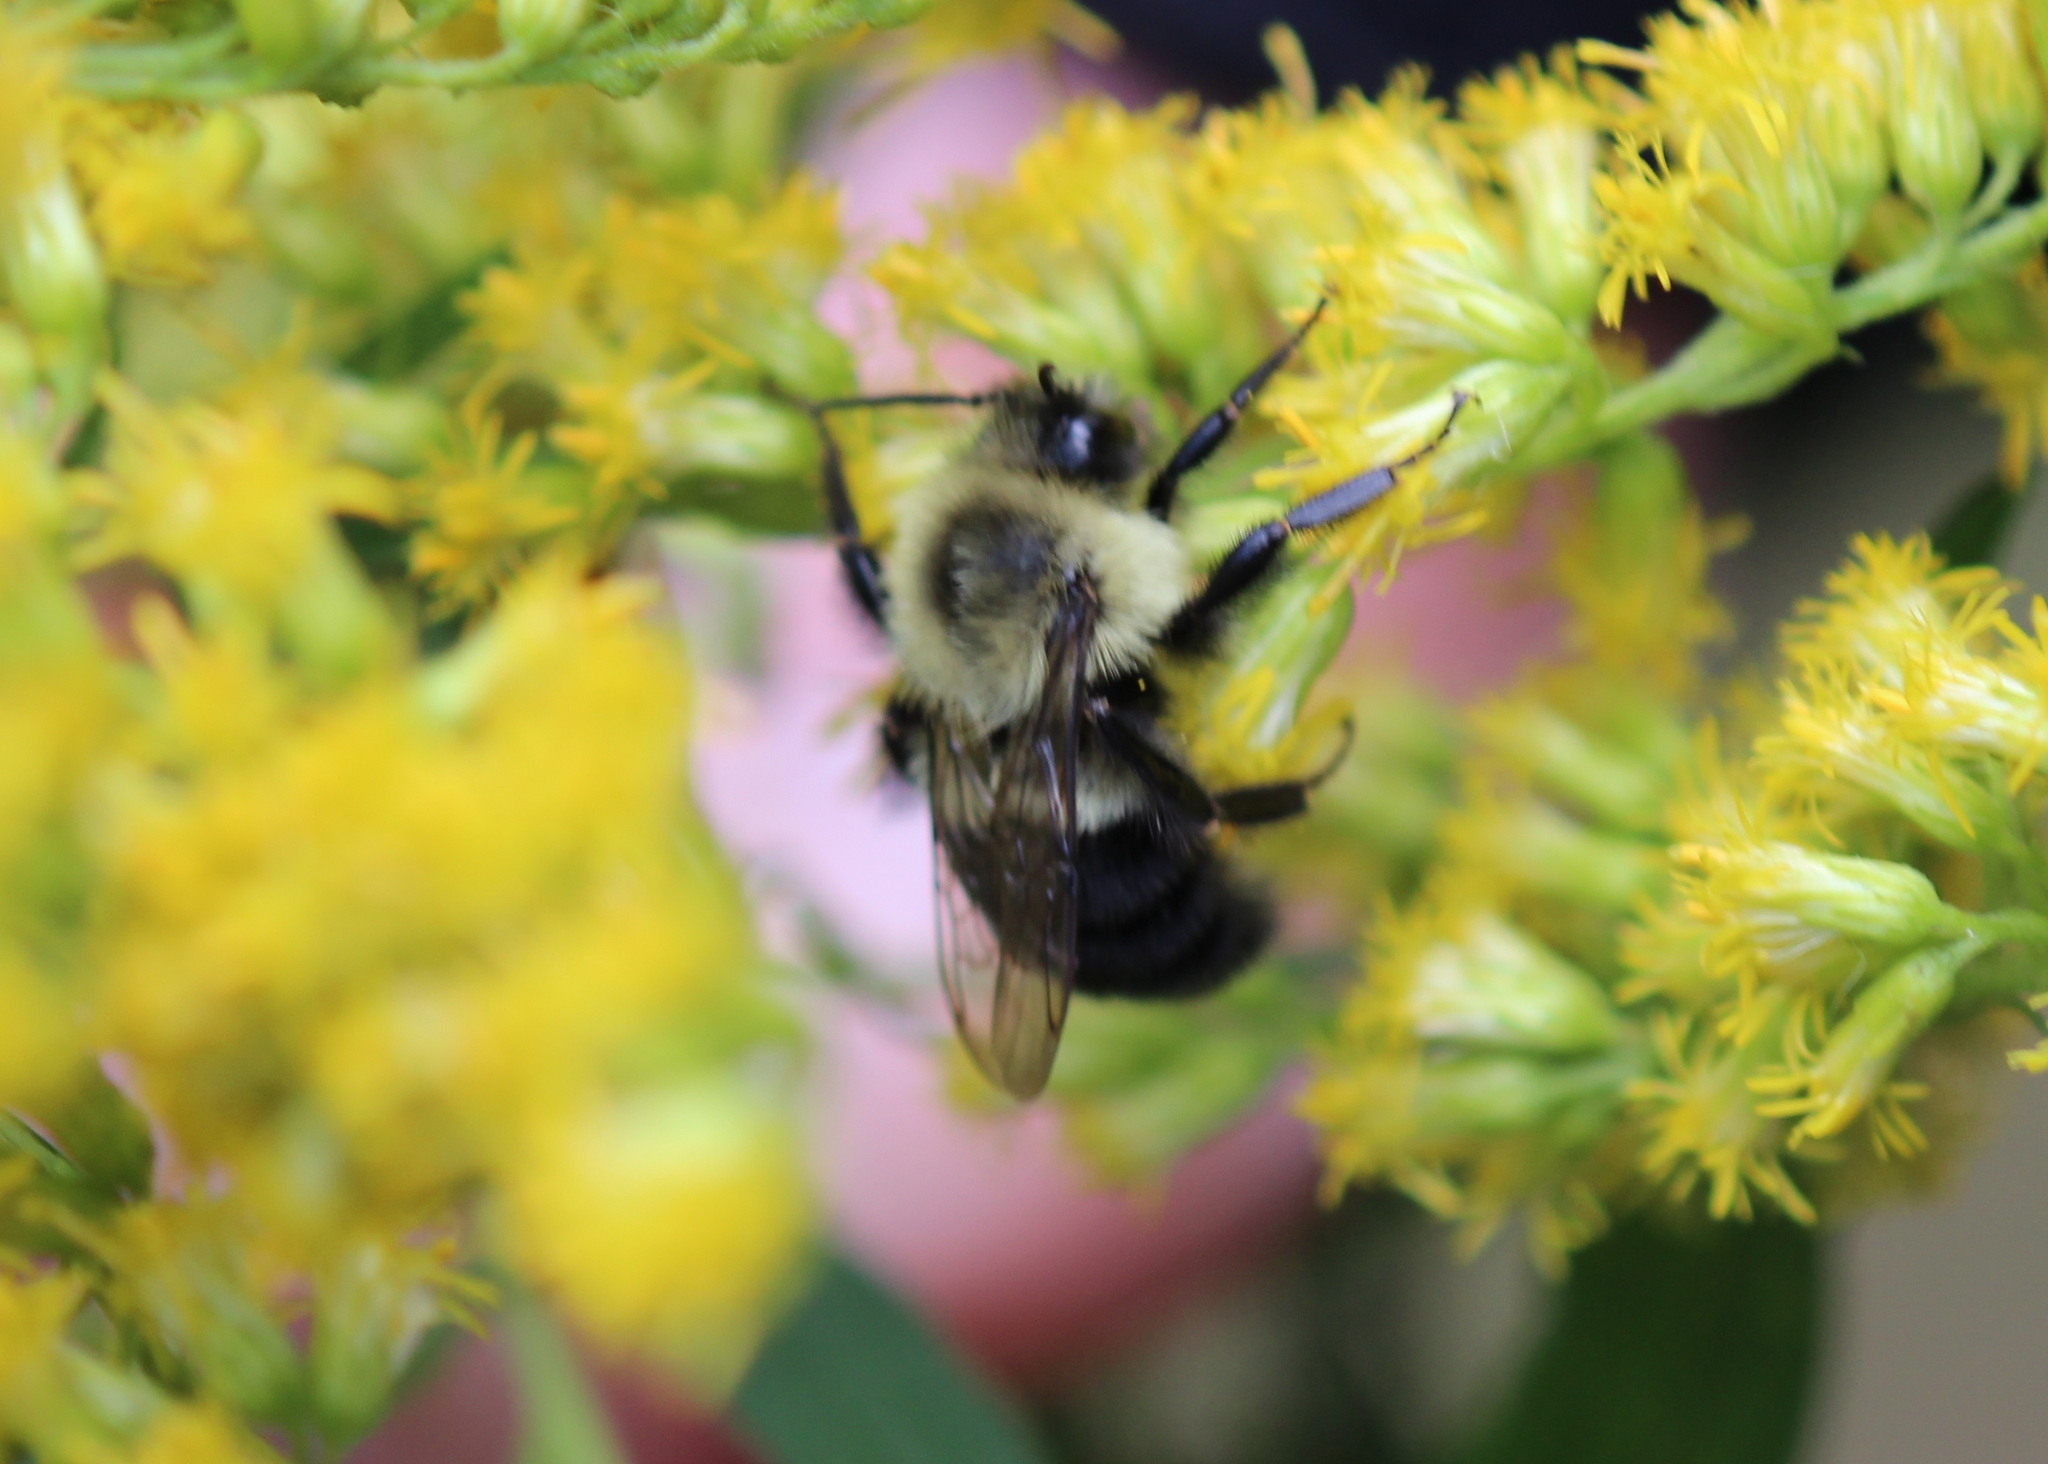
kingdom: Animalia
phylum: Arthropoda
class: Insecta
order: Hymenoptera
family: Apidae
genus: Bombus
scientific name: Bombus impatiens
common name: Common eastern bumble bee
